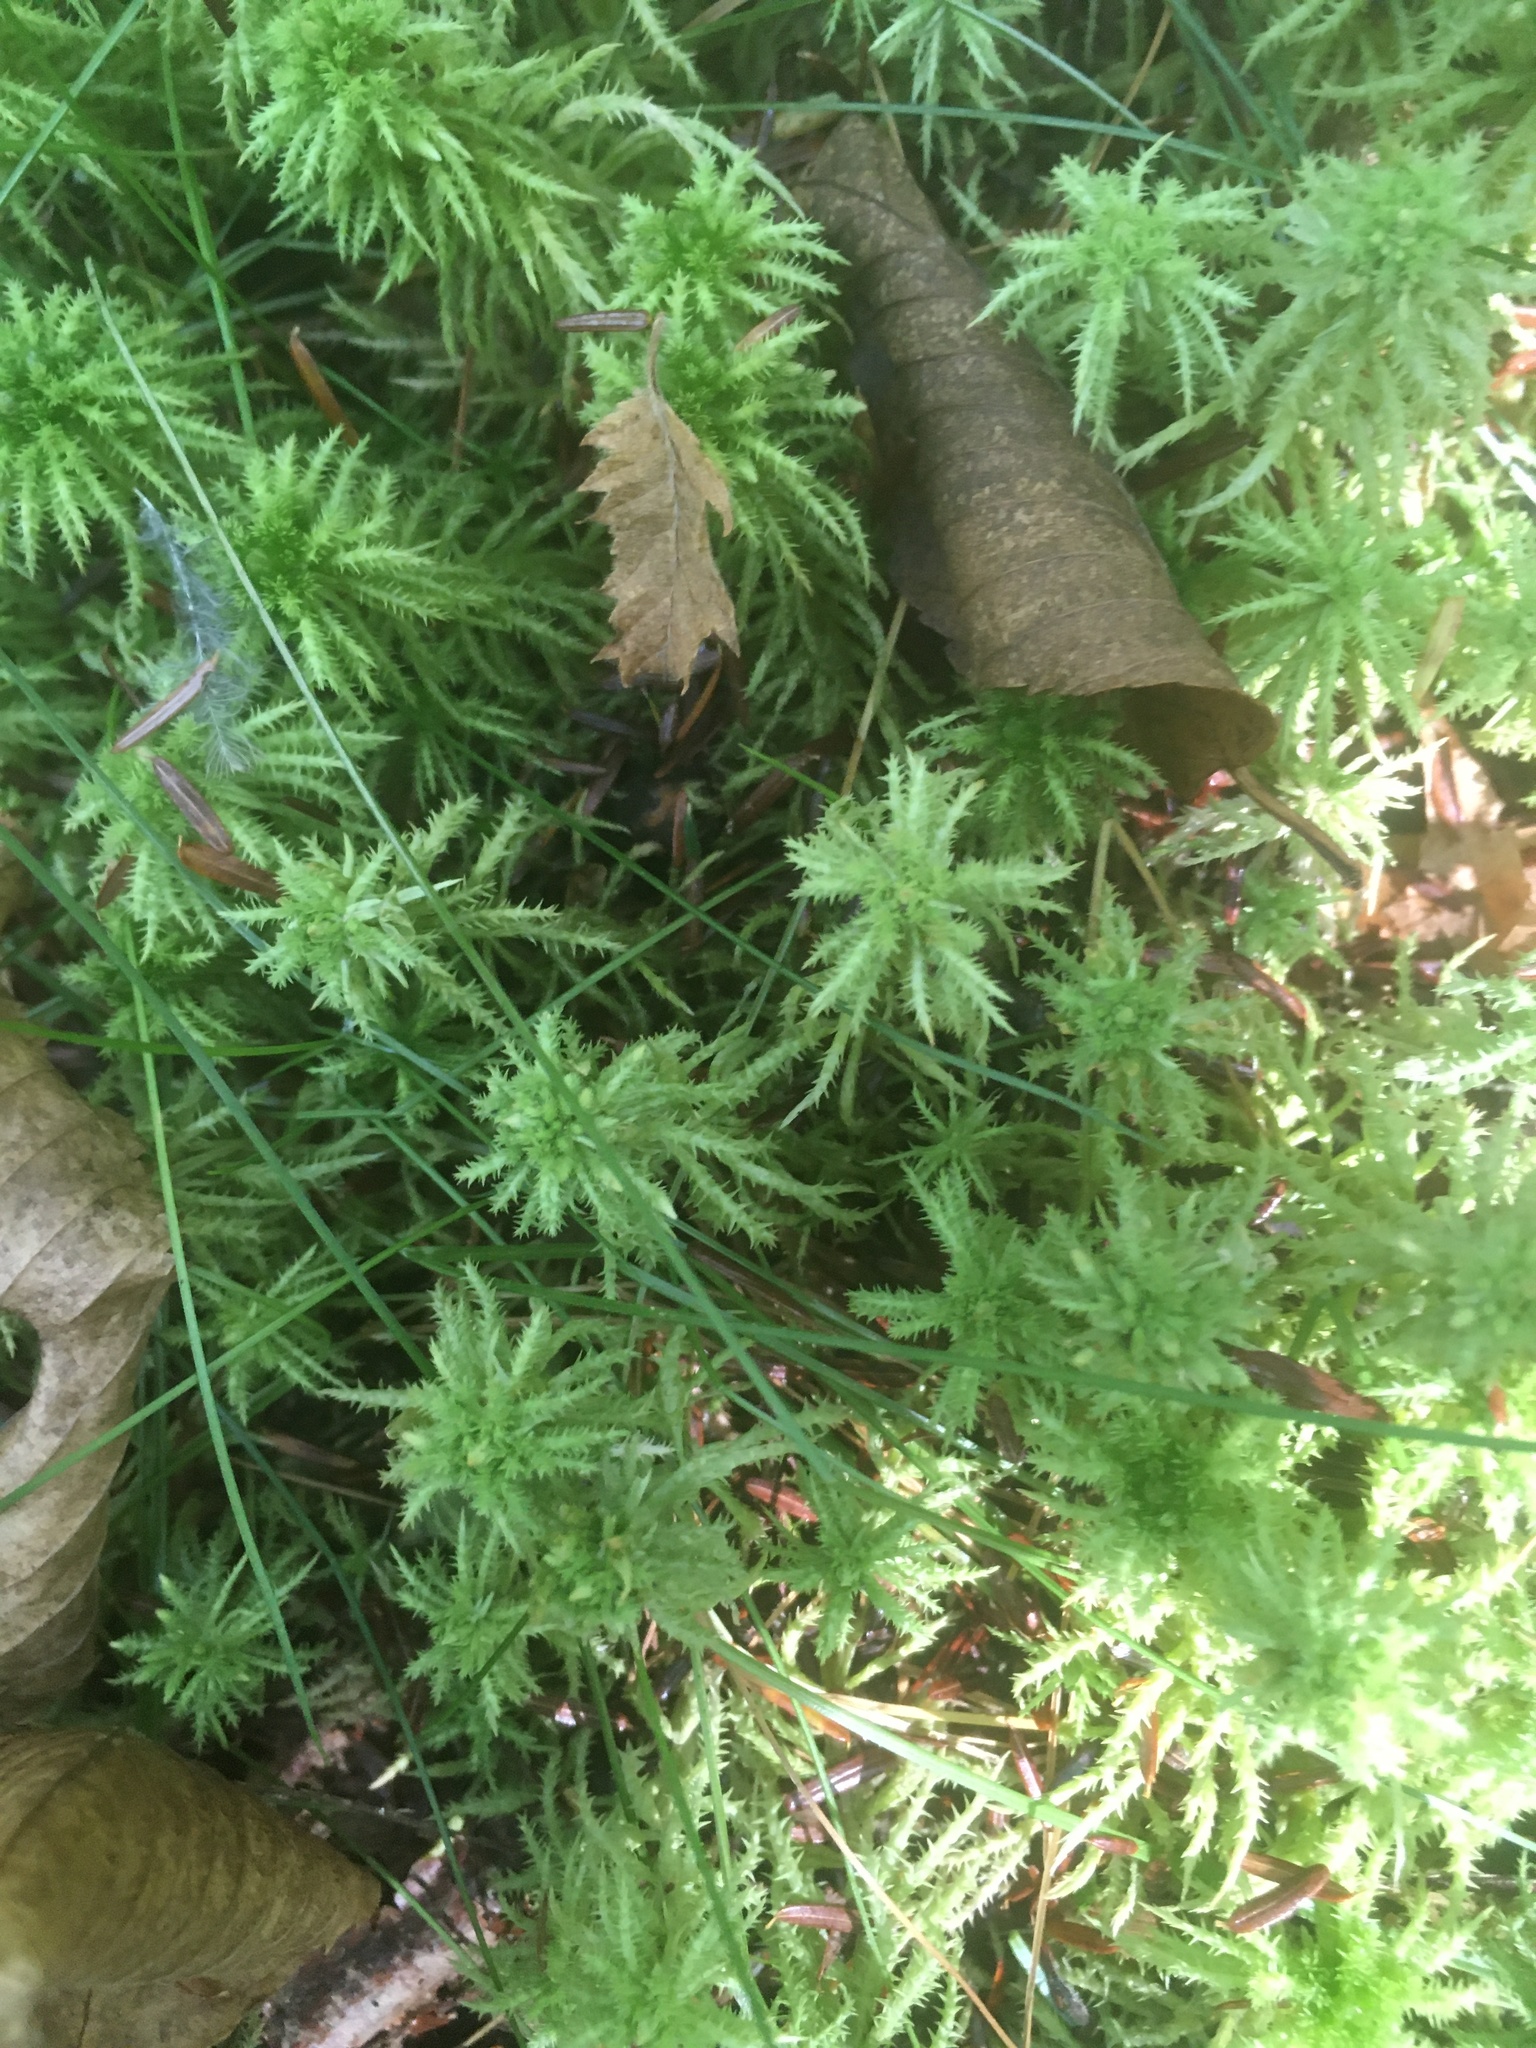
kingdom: Plantae
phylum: Bryophyta
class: Sphagnopsida
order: Sphagnales
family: Sphagnaceae
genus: Sphagnum
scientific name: Sphagnum squarrosum
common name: Shaggy peat moss
